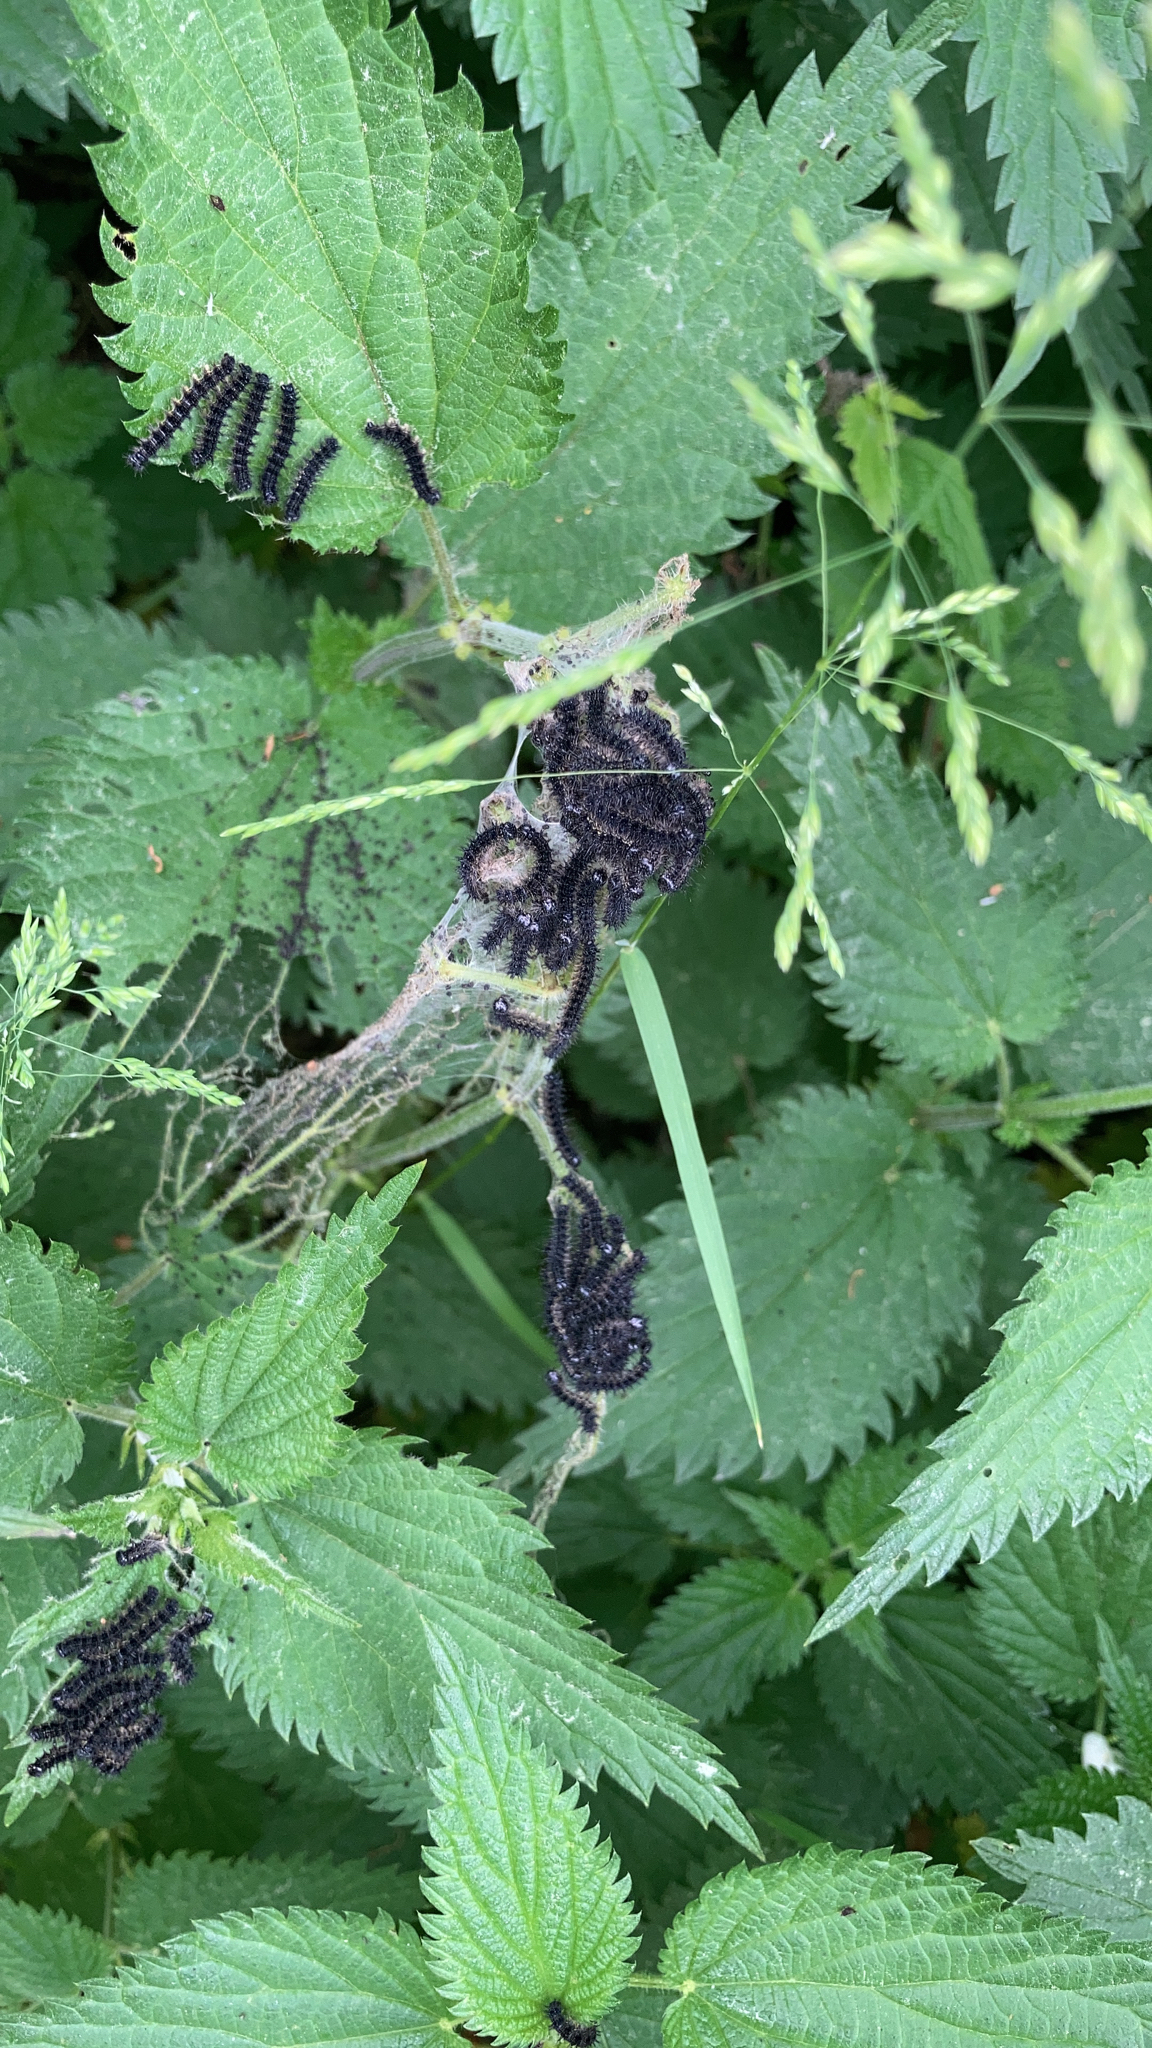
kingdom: Animalia
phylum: Arthropoda
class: Insecta
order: Lepidoptera
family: Nymphalidae
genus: Aglais
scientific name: Aglais urticae
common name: Small tortoiseshell
